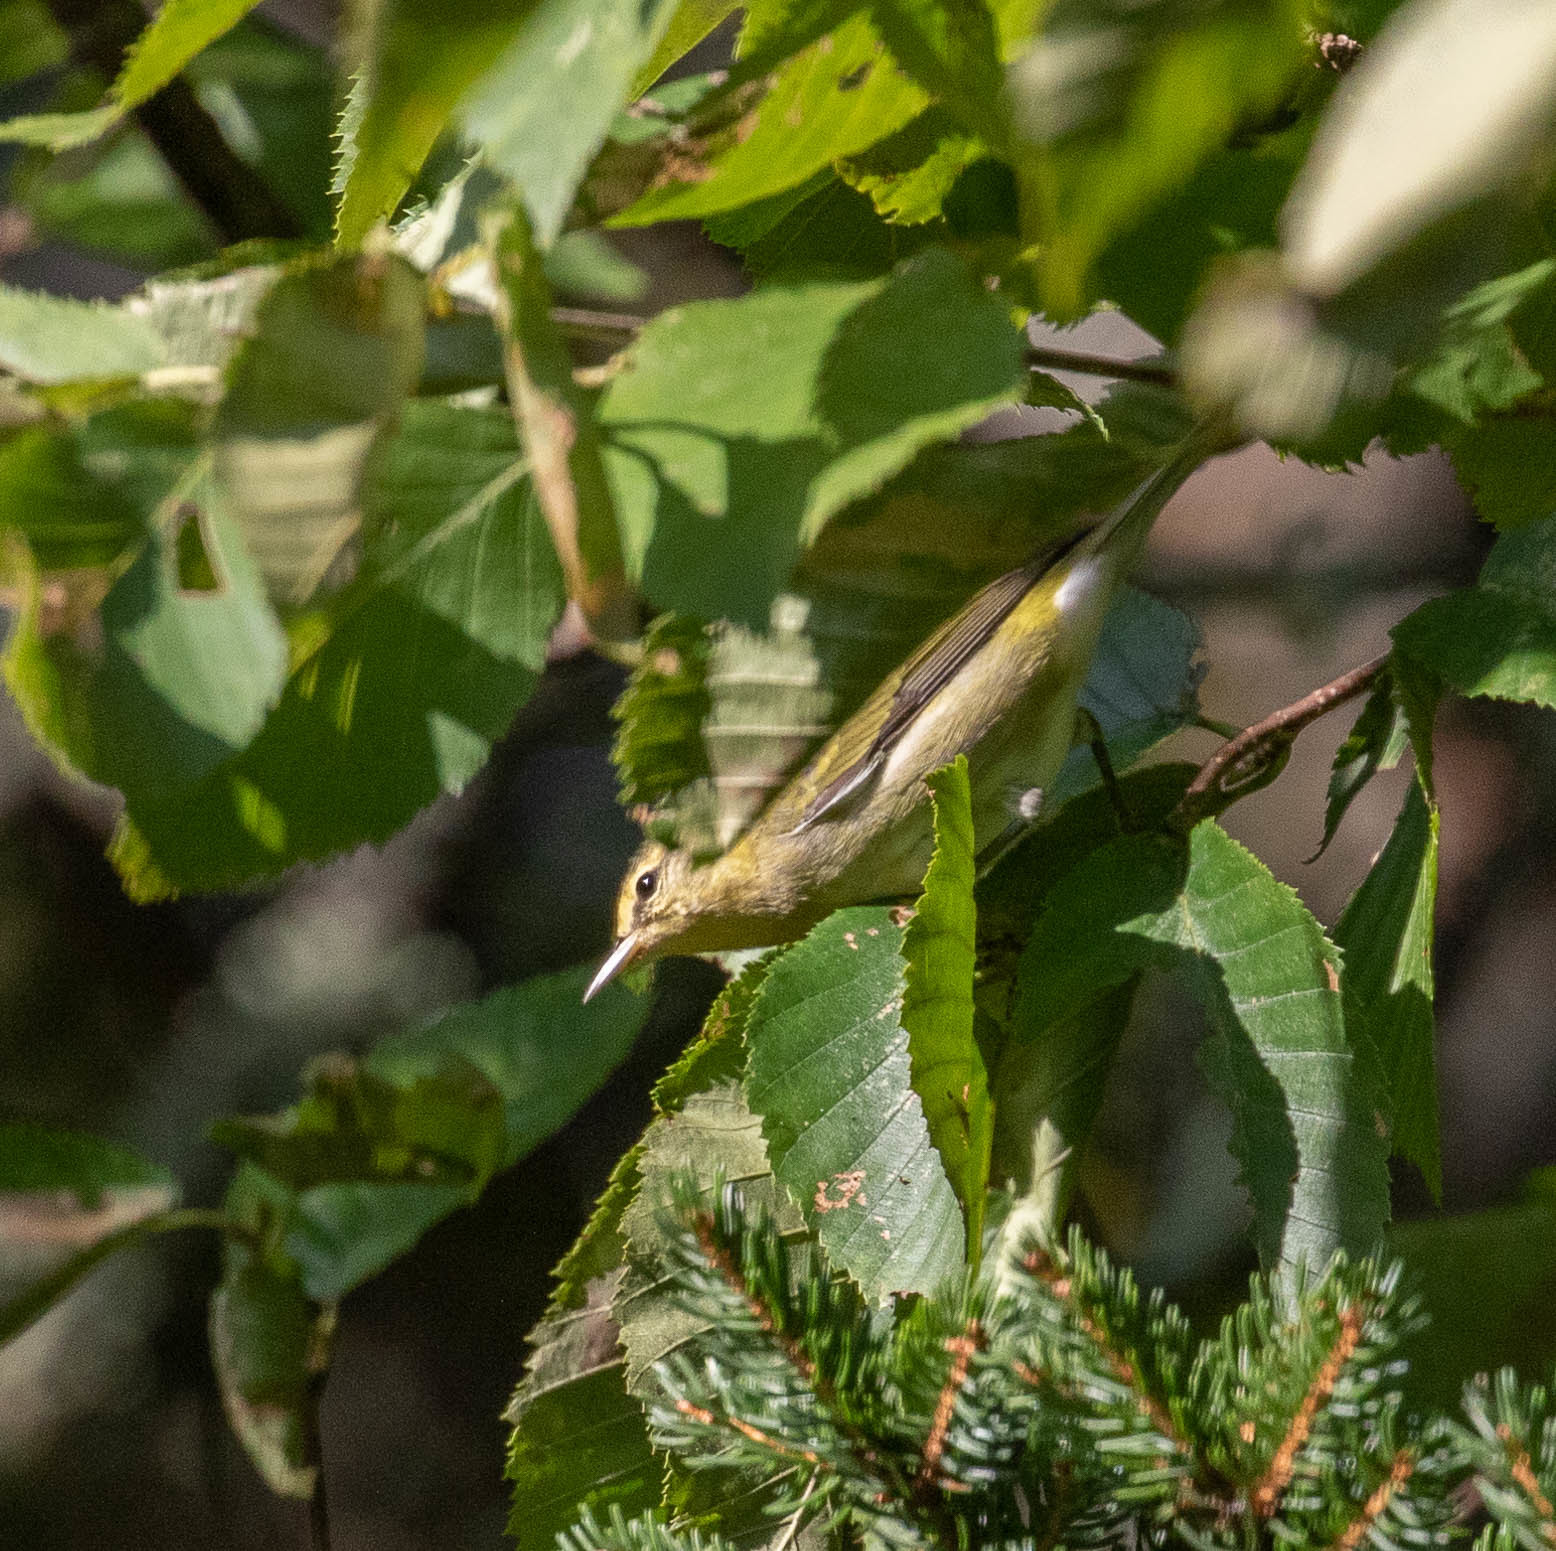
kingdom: Animalia
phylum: Chordata
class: Aves
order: Passeriformes
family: Parulidae
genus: Leiothlypis
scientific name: Leiothlypis peregrina
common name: Tennessee warbler
